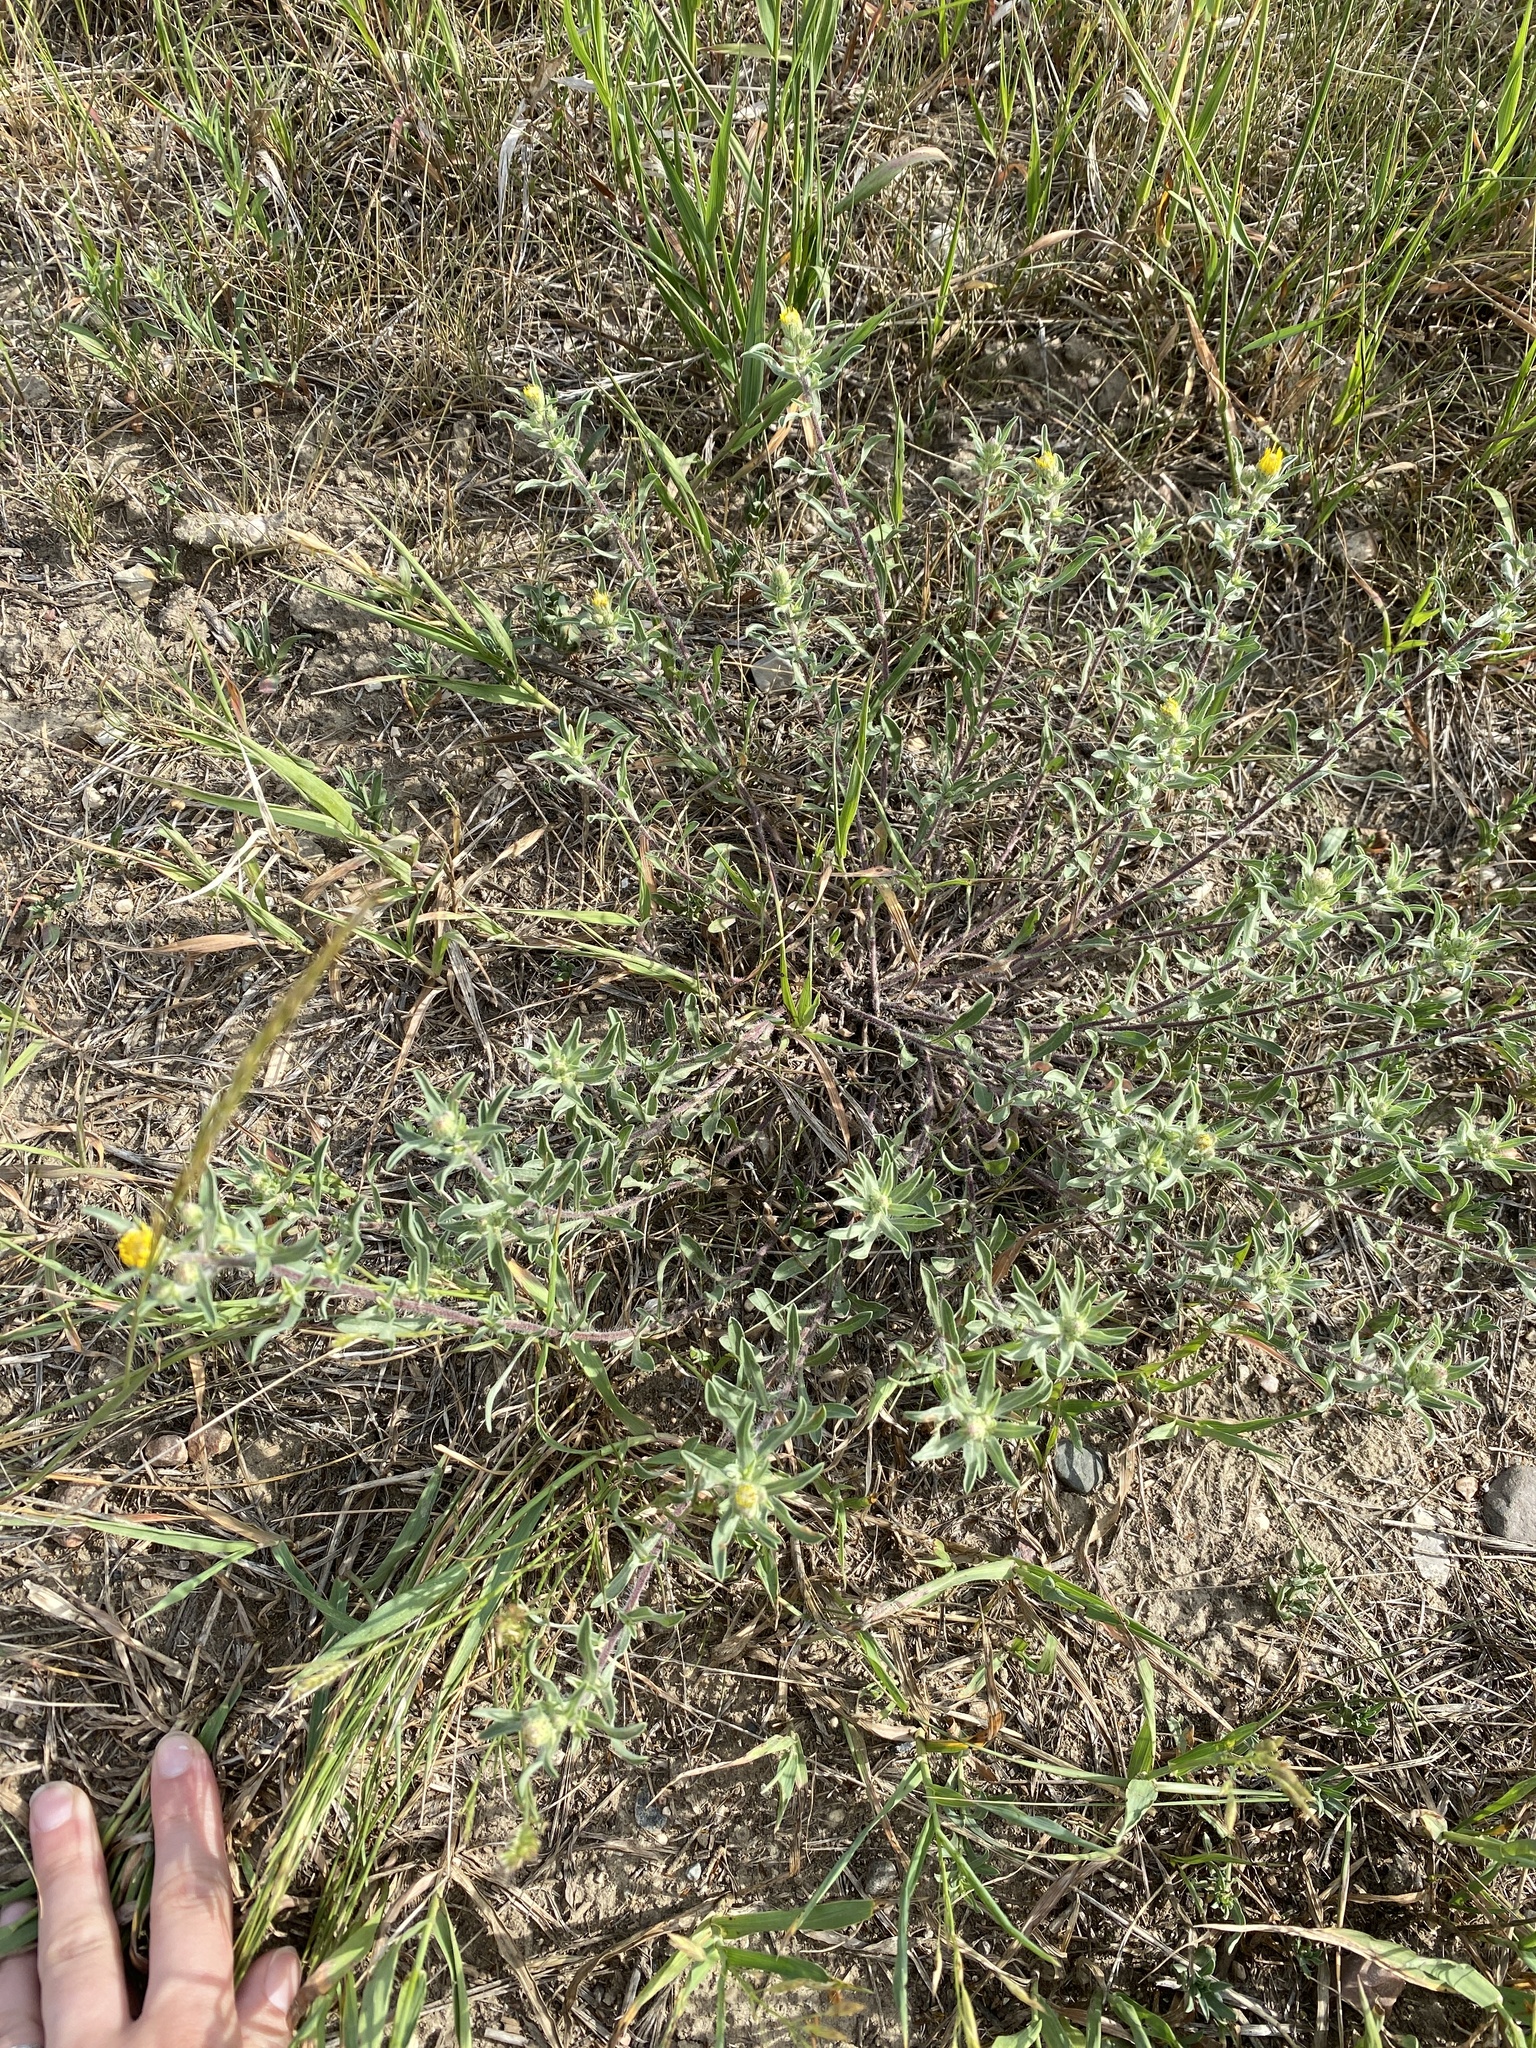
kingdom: Plantae
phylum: Tracheophyta
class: Magnoliopsida
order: Asterales
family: Asteraceae
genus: Heterotheca
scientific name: Heterotheca villosa
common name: Hairy false goldenaster
